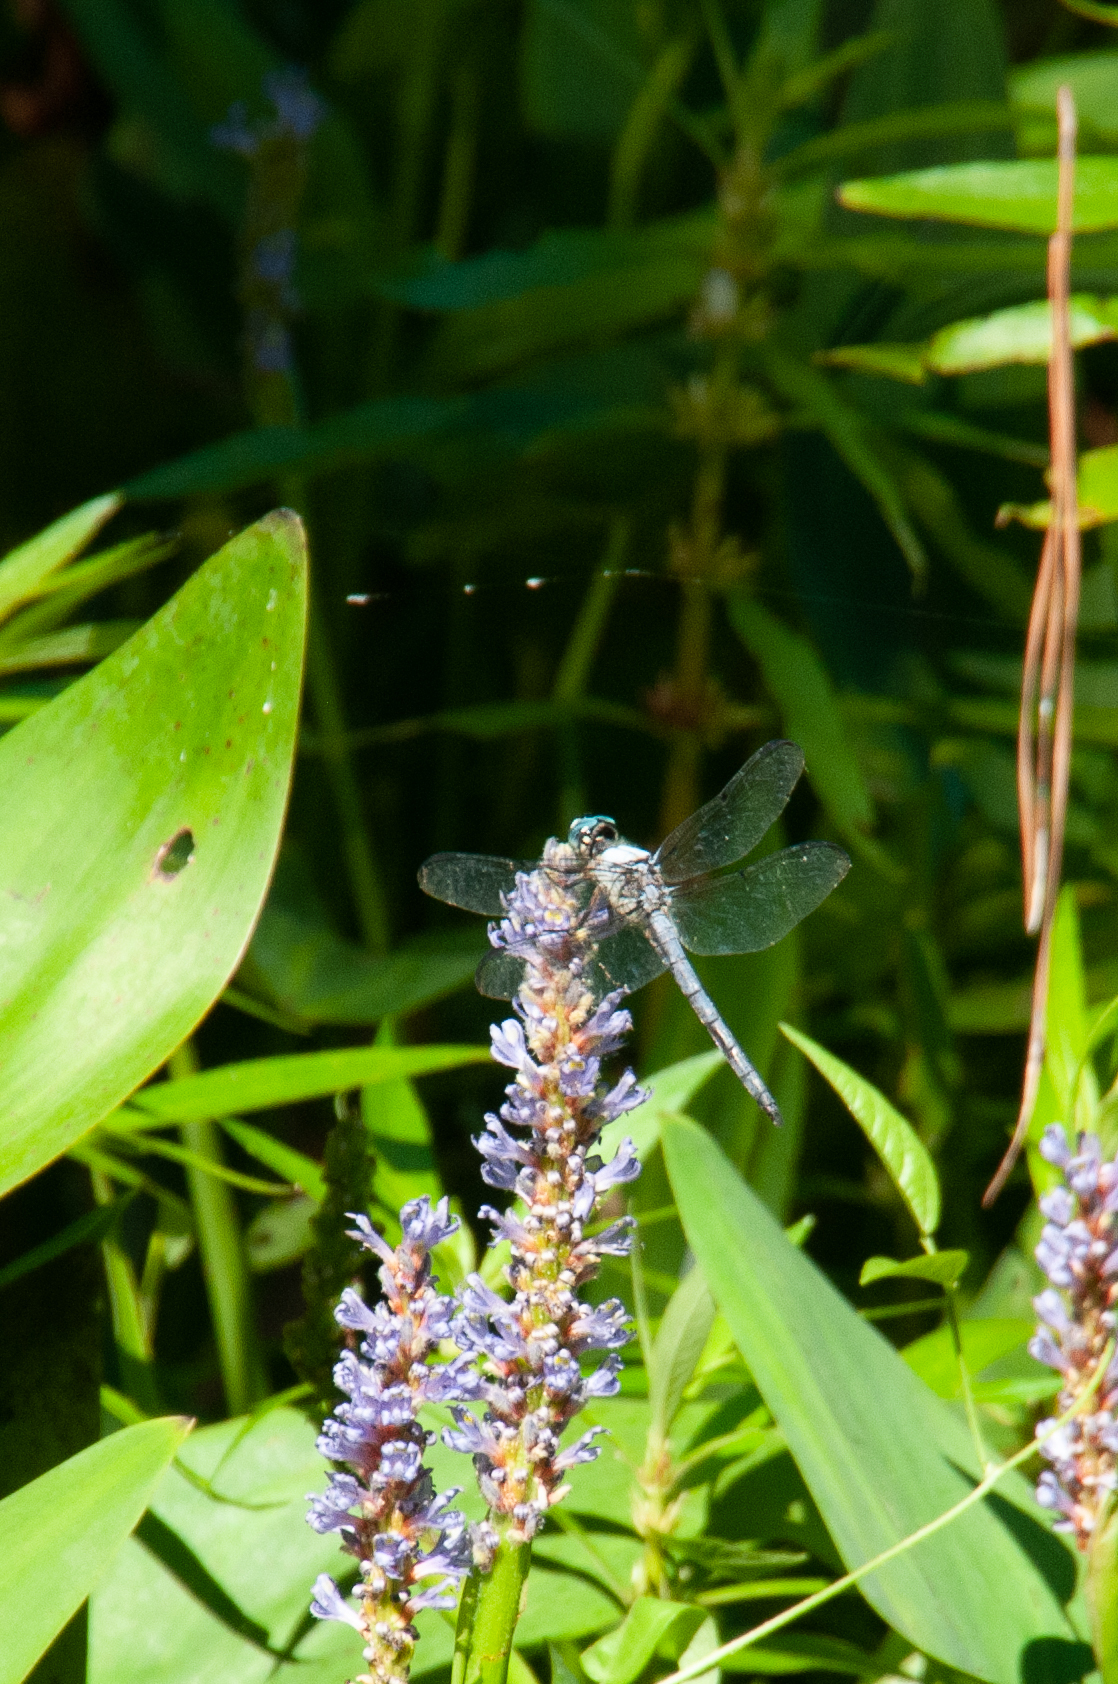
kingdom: Plantae
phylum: Tracheophyta
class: Liliopsida
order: Commelinales
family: Pontederiaceae
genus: Pontederia
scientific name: Pontederia cordata
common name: Pickerelweed
